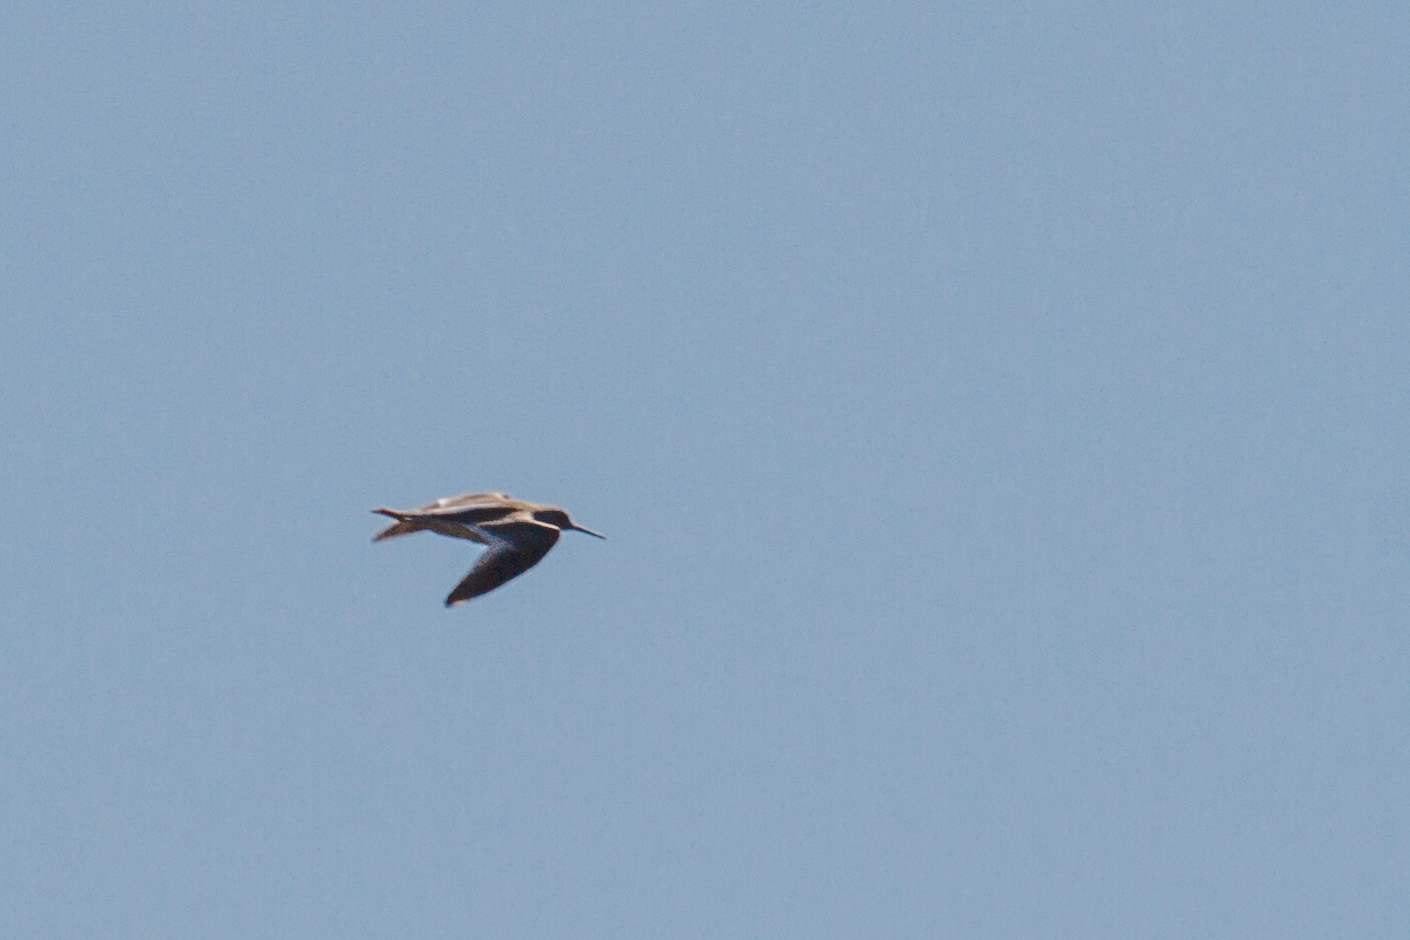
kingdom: Animalia
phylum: Chordata
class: Aves
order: Charadriiformes
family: Scolopacidae
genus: Tringa
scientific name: Tringa totanus
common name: Common redshank
